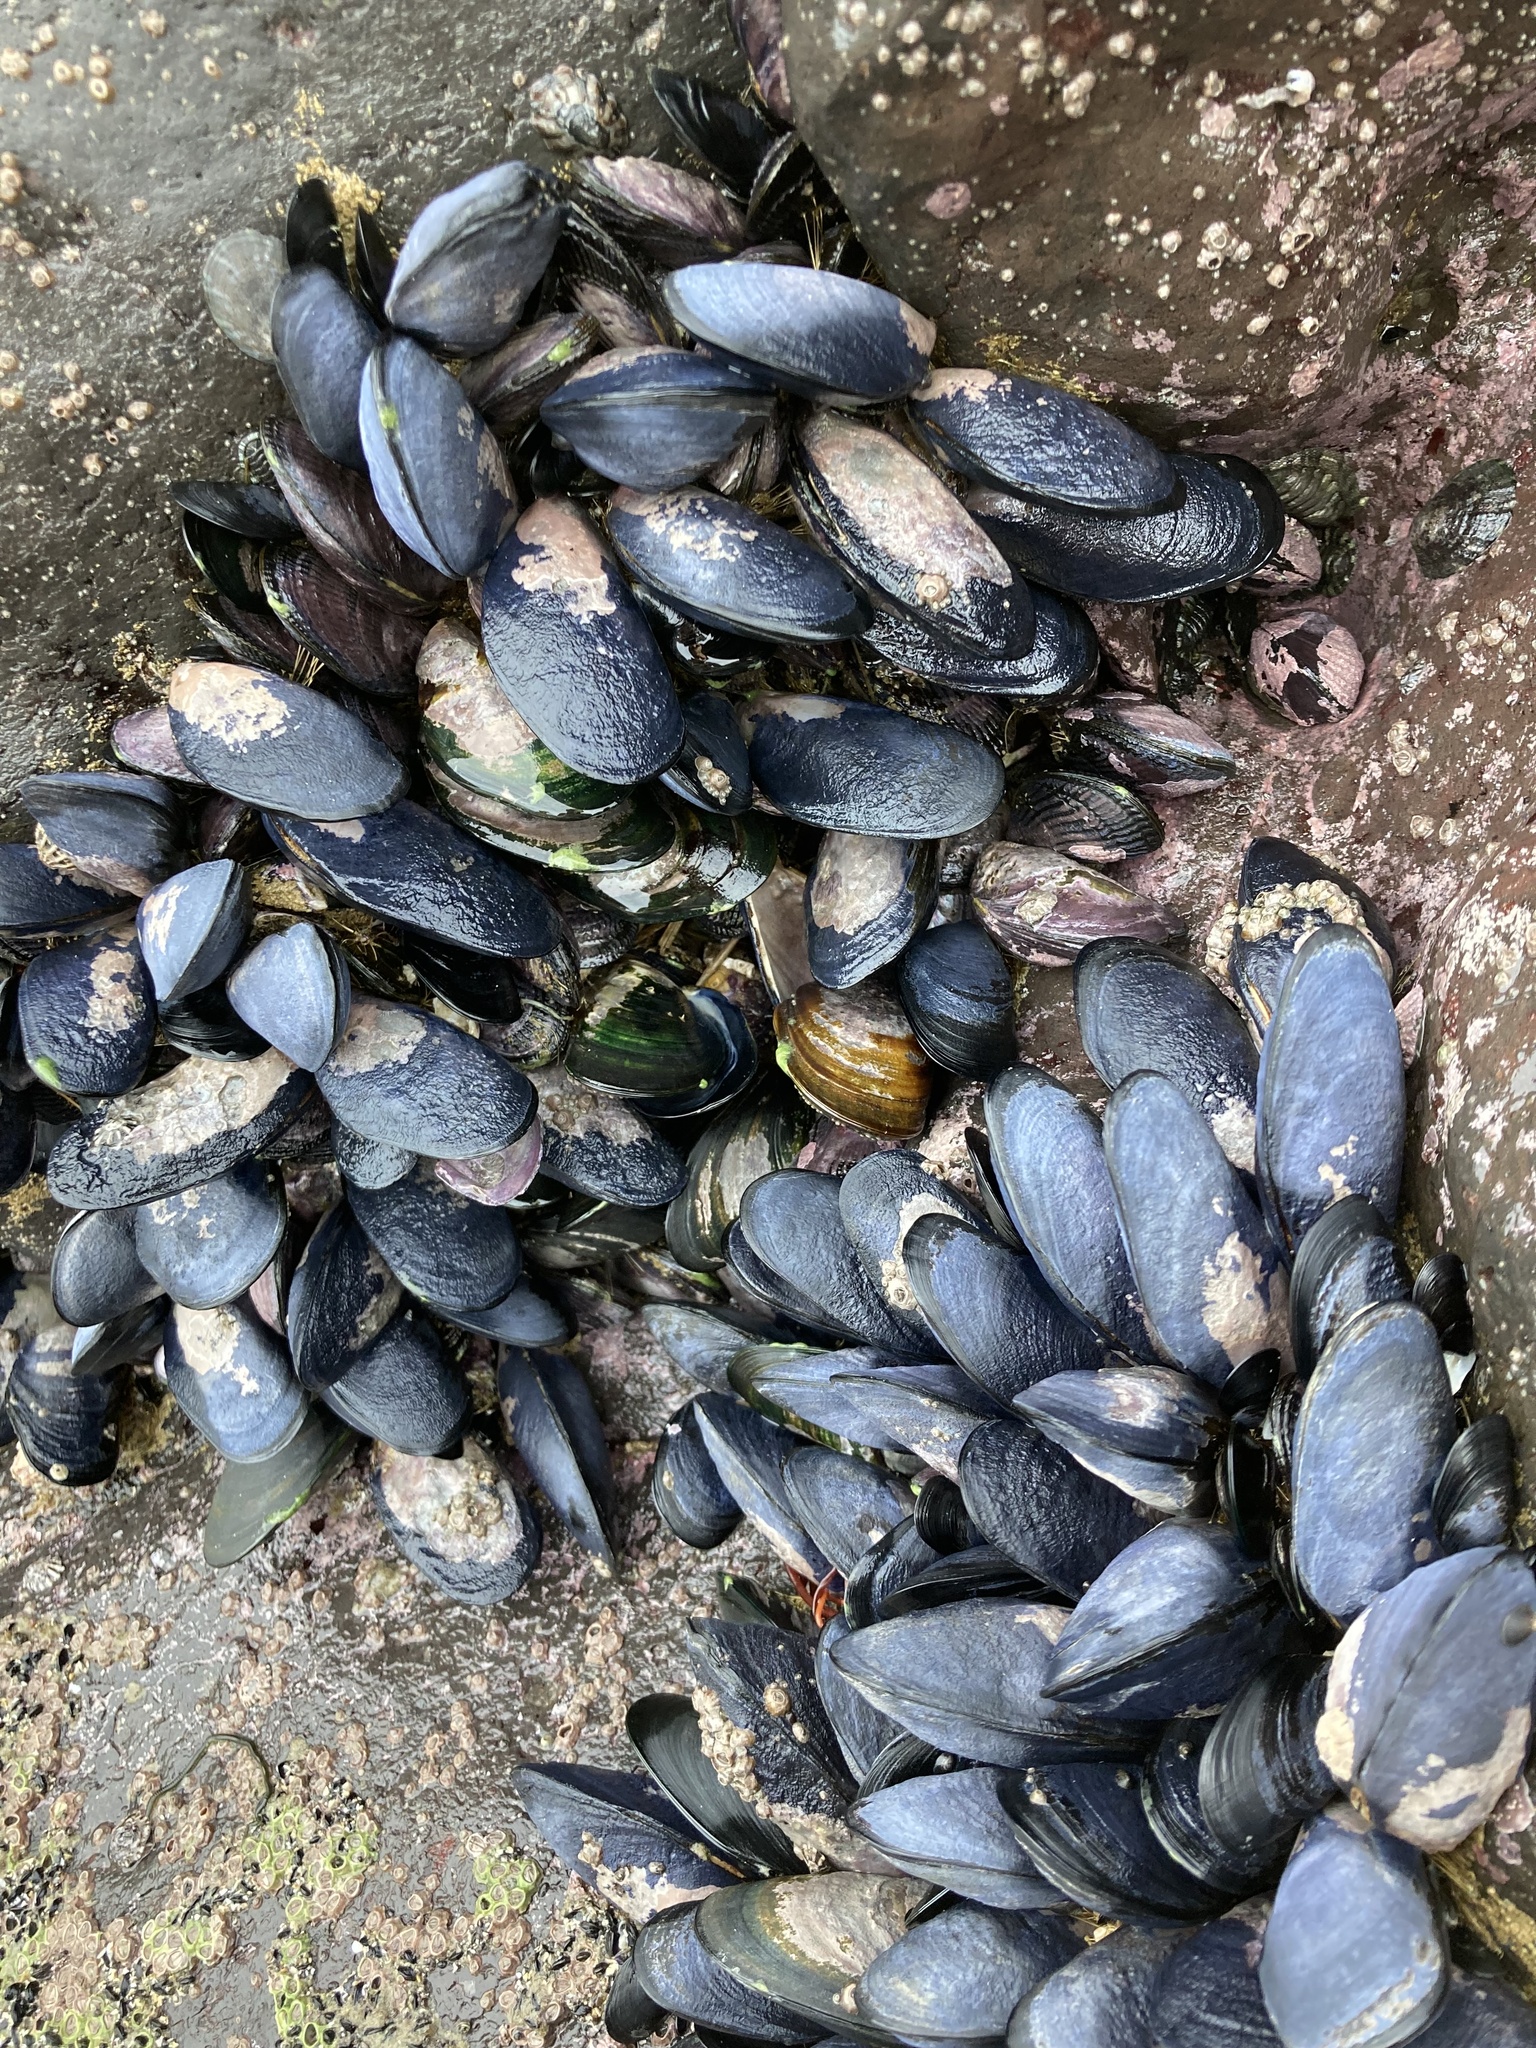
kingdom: Animalia
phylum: Mollusca
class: Bivalvia
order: Mytilida
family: Mytilidae
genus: Mytilus
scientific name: Mytilus planulatus
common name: Australian mussel
